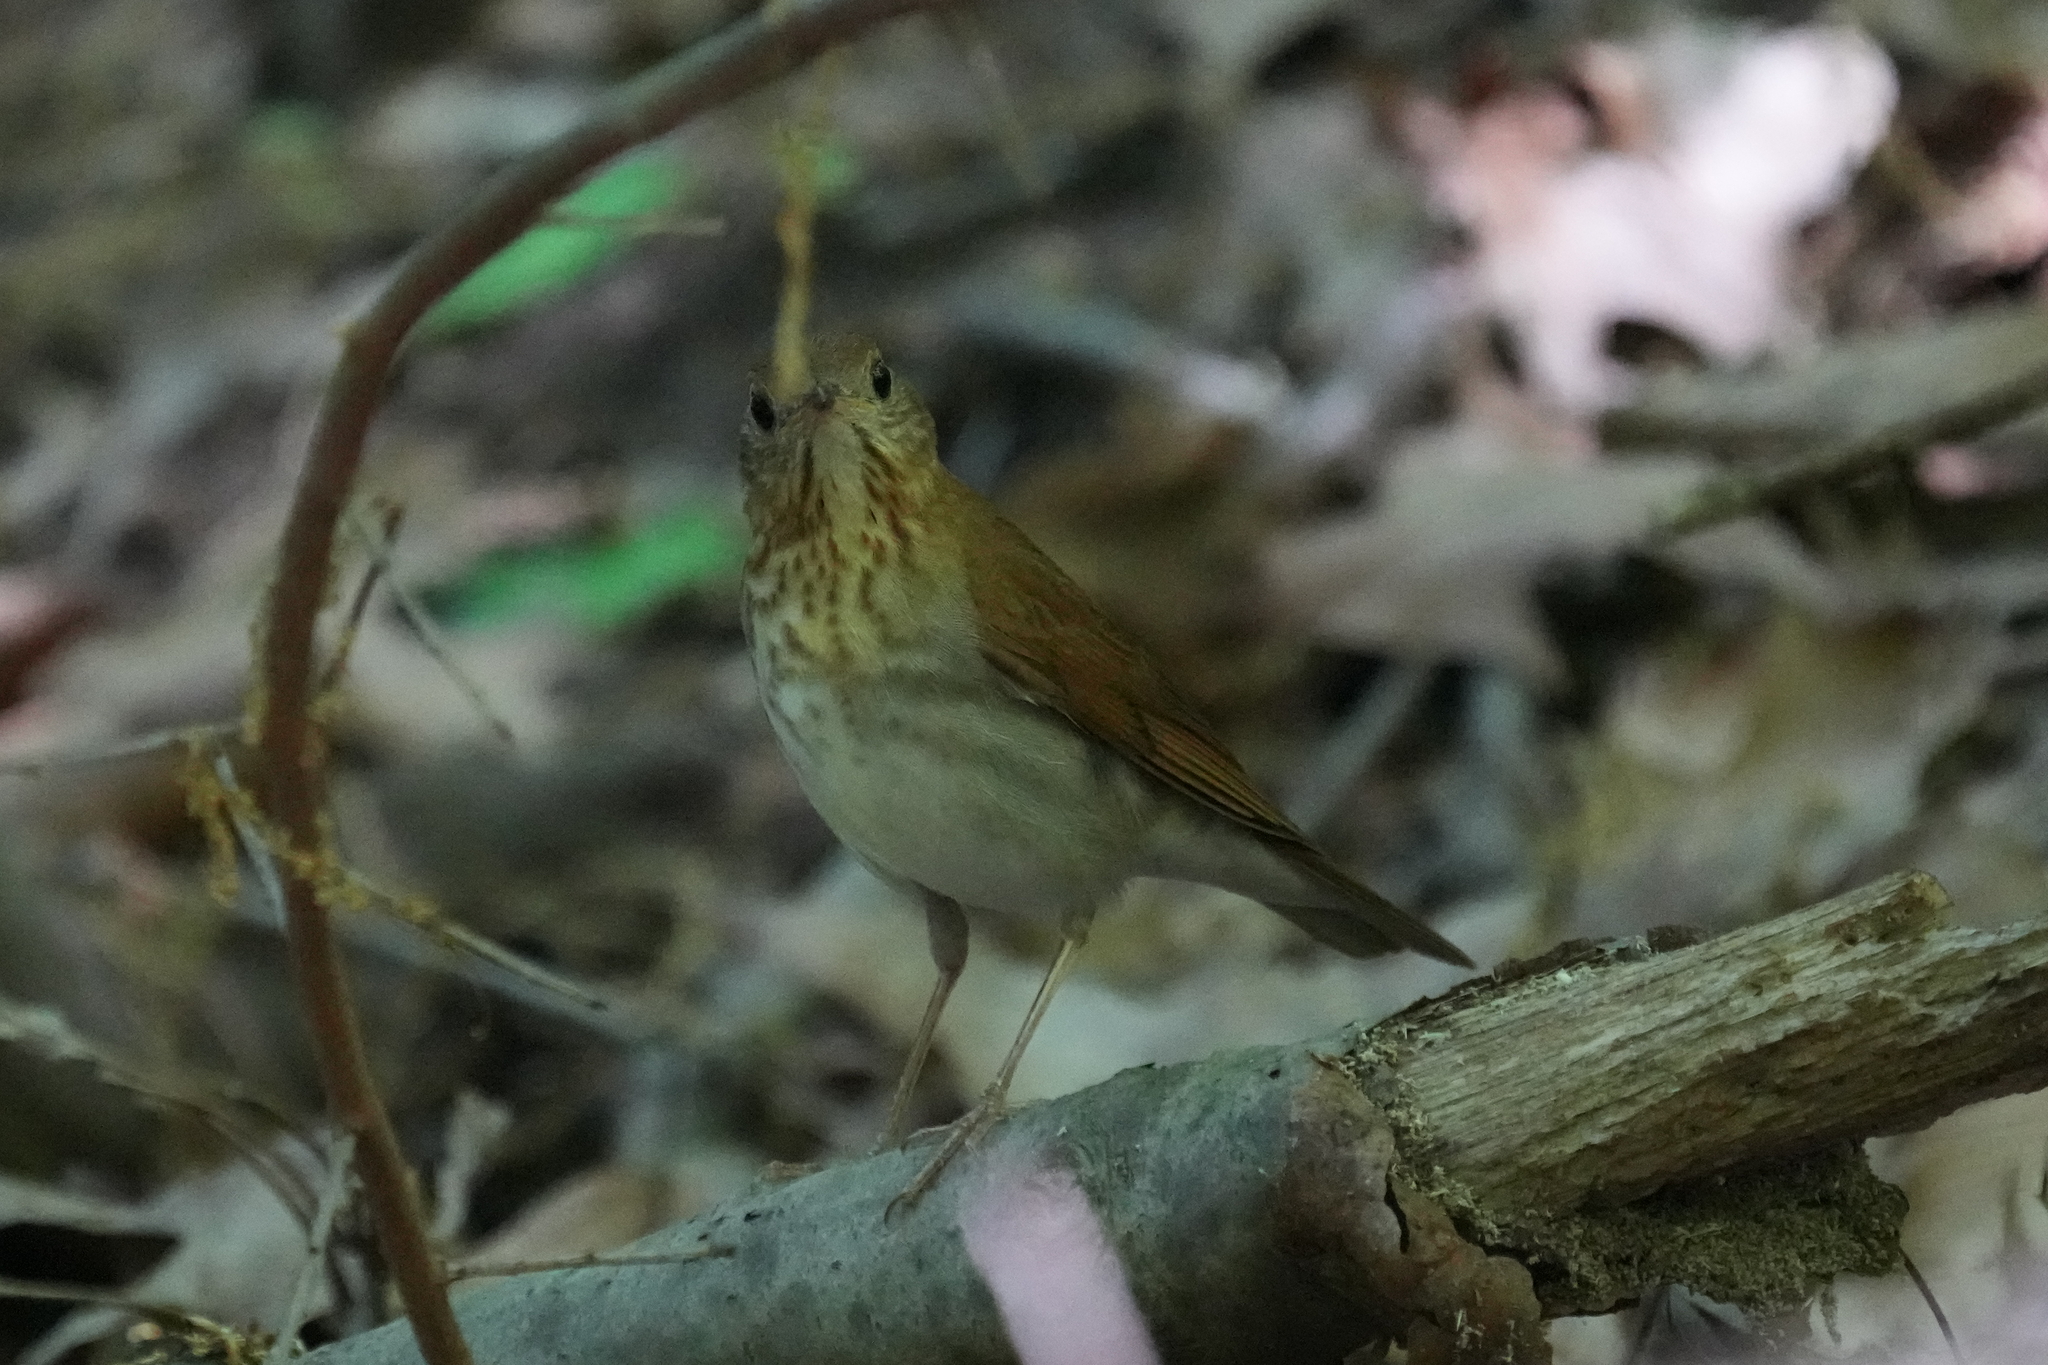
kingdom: Animalia
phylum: Chordata
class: Aves
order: Passeriformes
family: Turdidae
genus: Catharus
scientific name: Catharus fuscescens
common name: Veery
